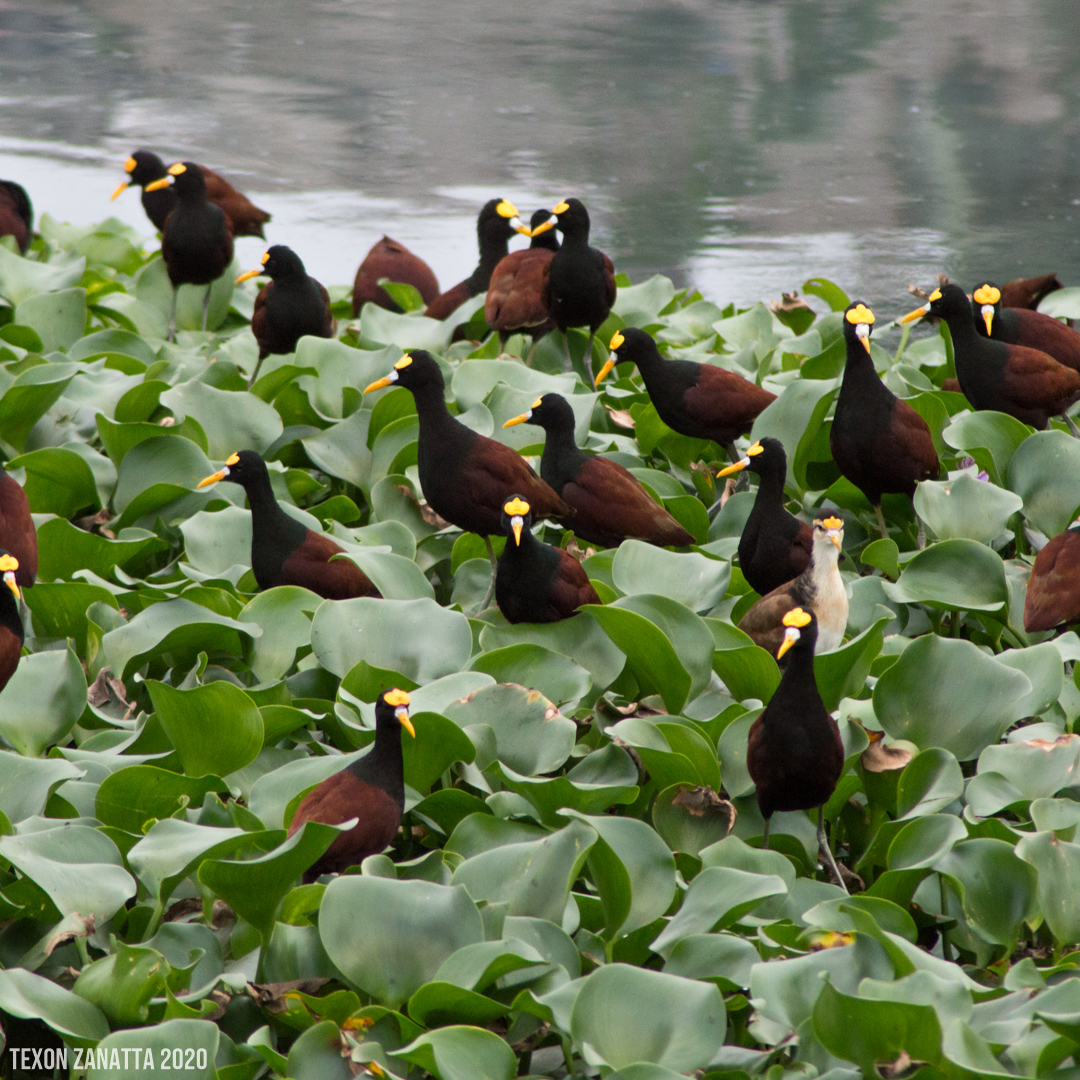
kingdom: Animalia
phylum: Chordata
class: Aves
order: Charadriiformes
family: Jacanidae
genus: Jacana
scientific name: Jacana spinosa
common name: Northern jacana
